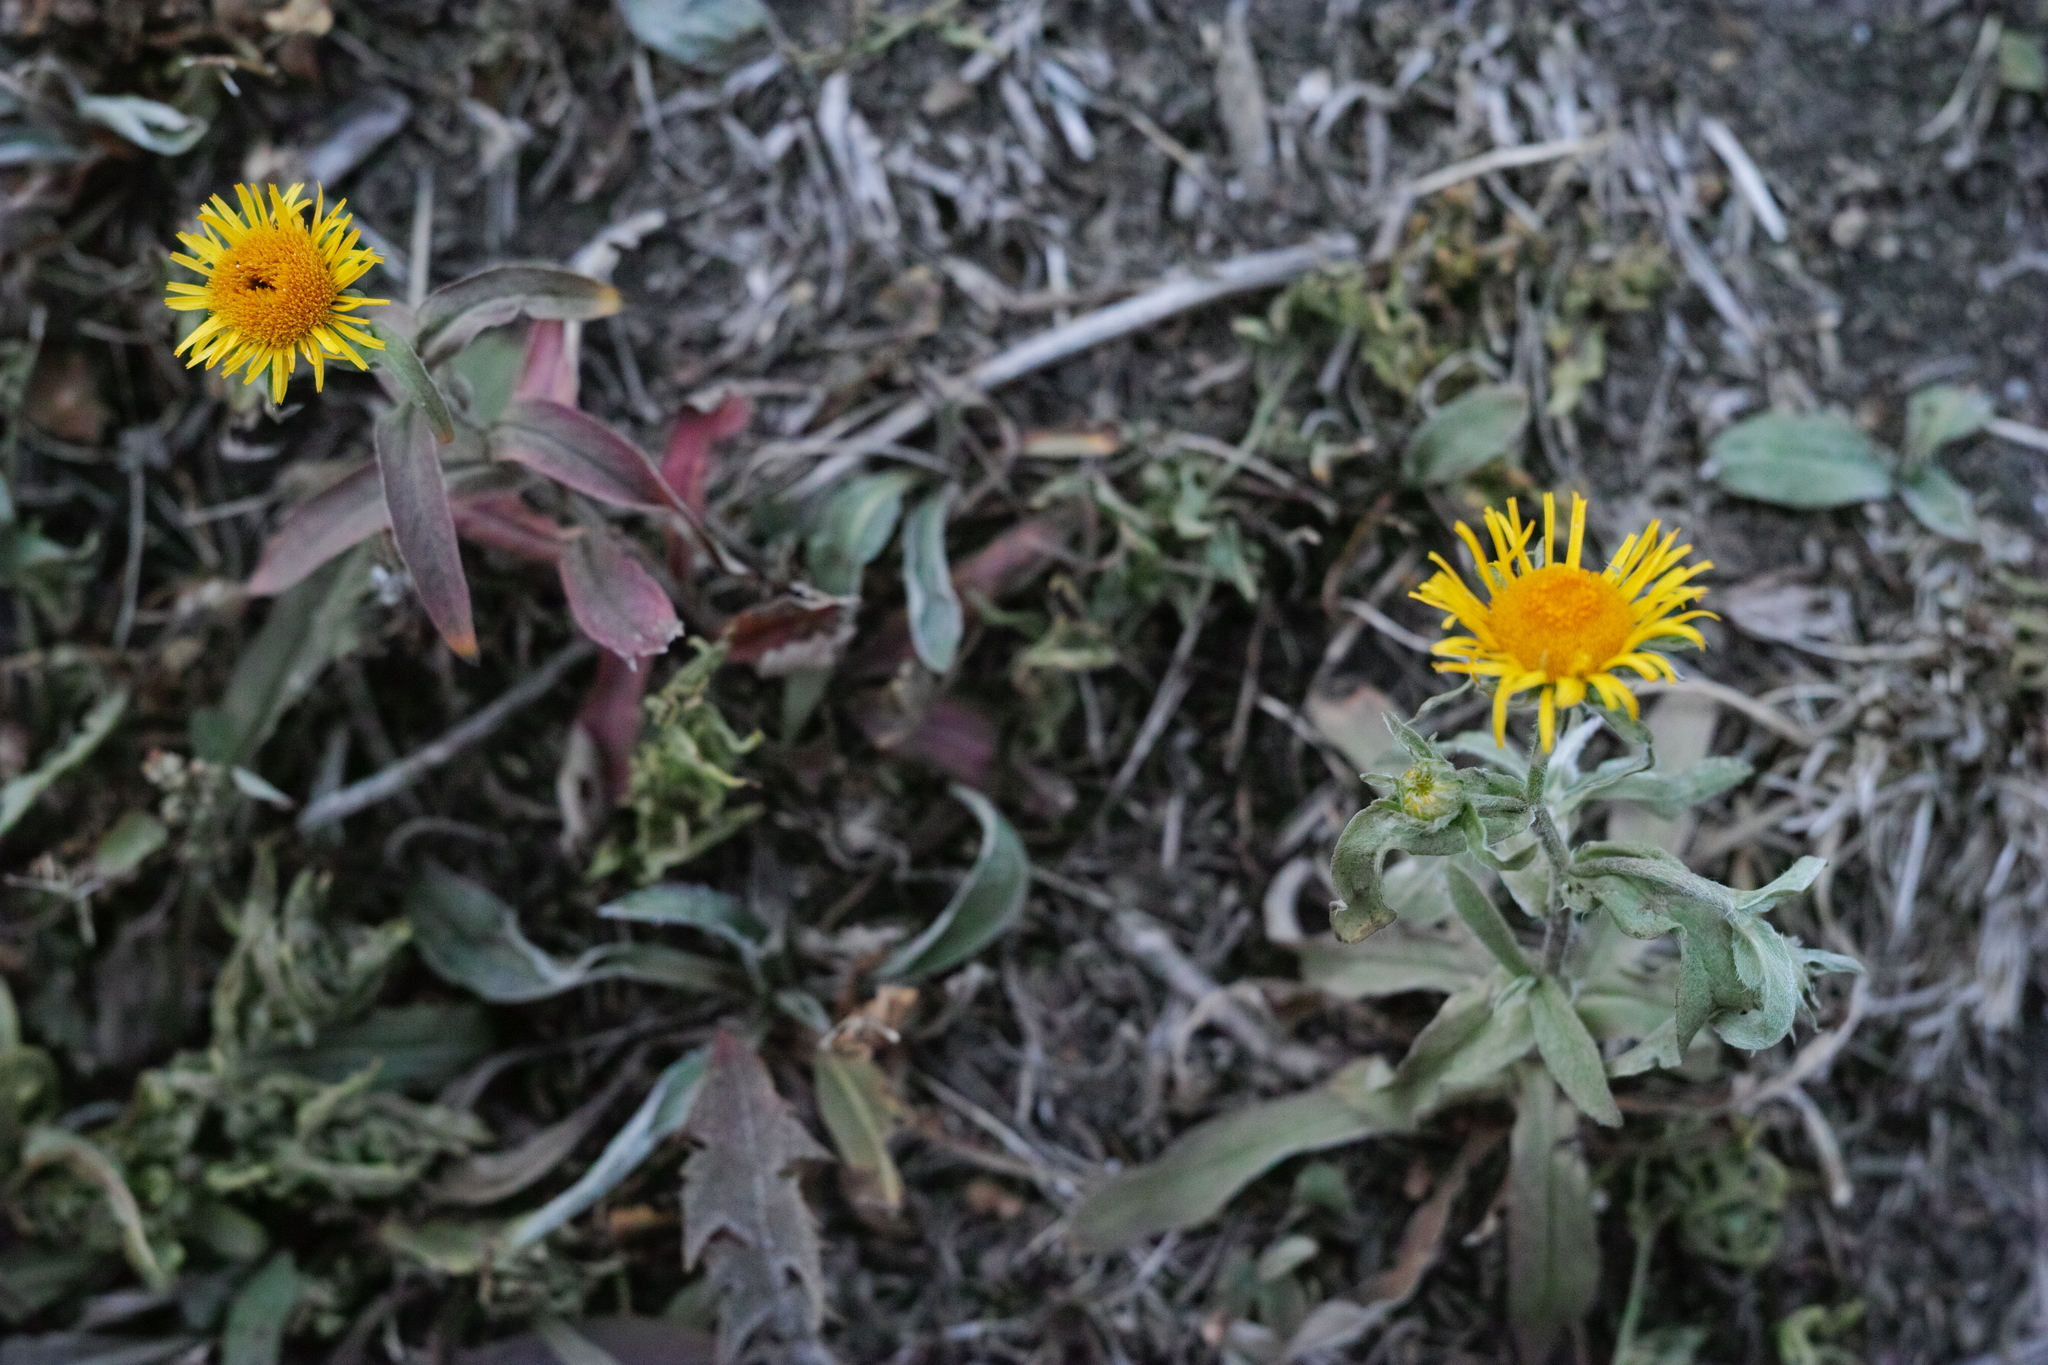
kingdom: Plantae
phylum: Tracheophyta
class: Magnoliopsida
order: Asterales
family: Asteraceae
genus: Pentanema
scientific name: Pentanema britannicum
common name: British elecampane
